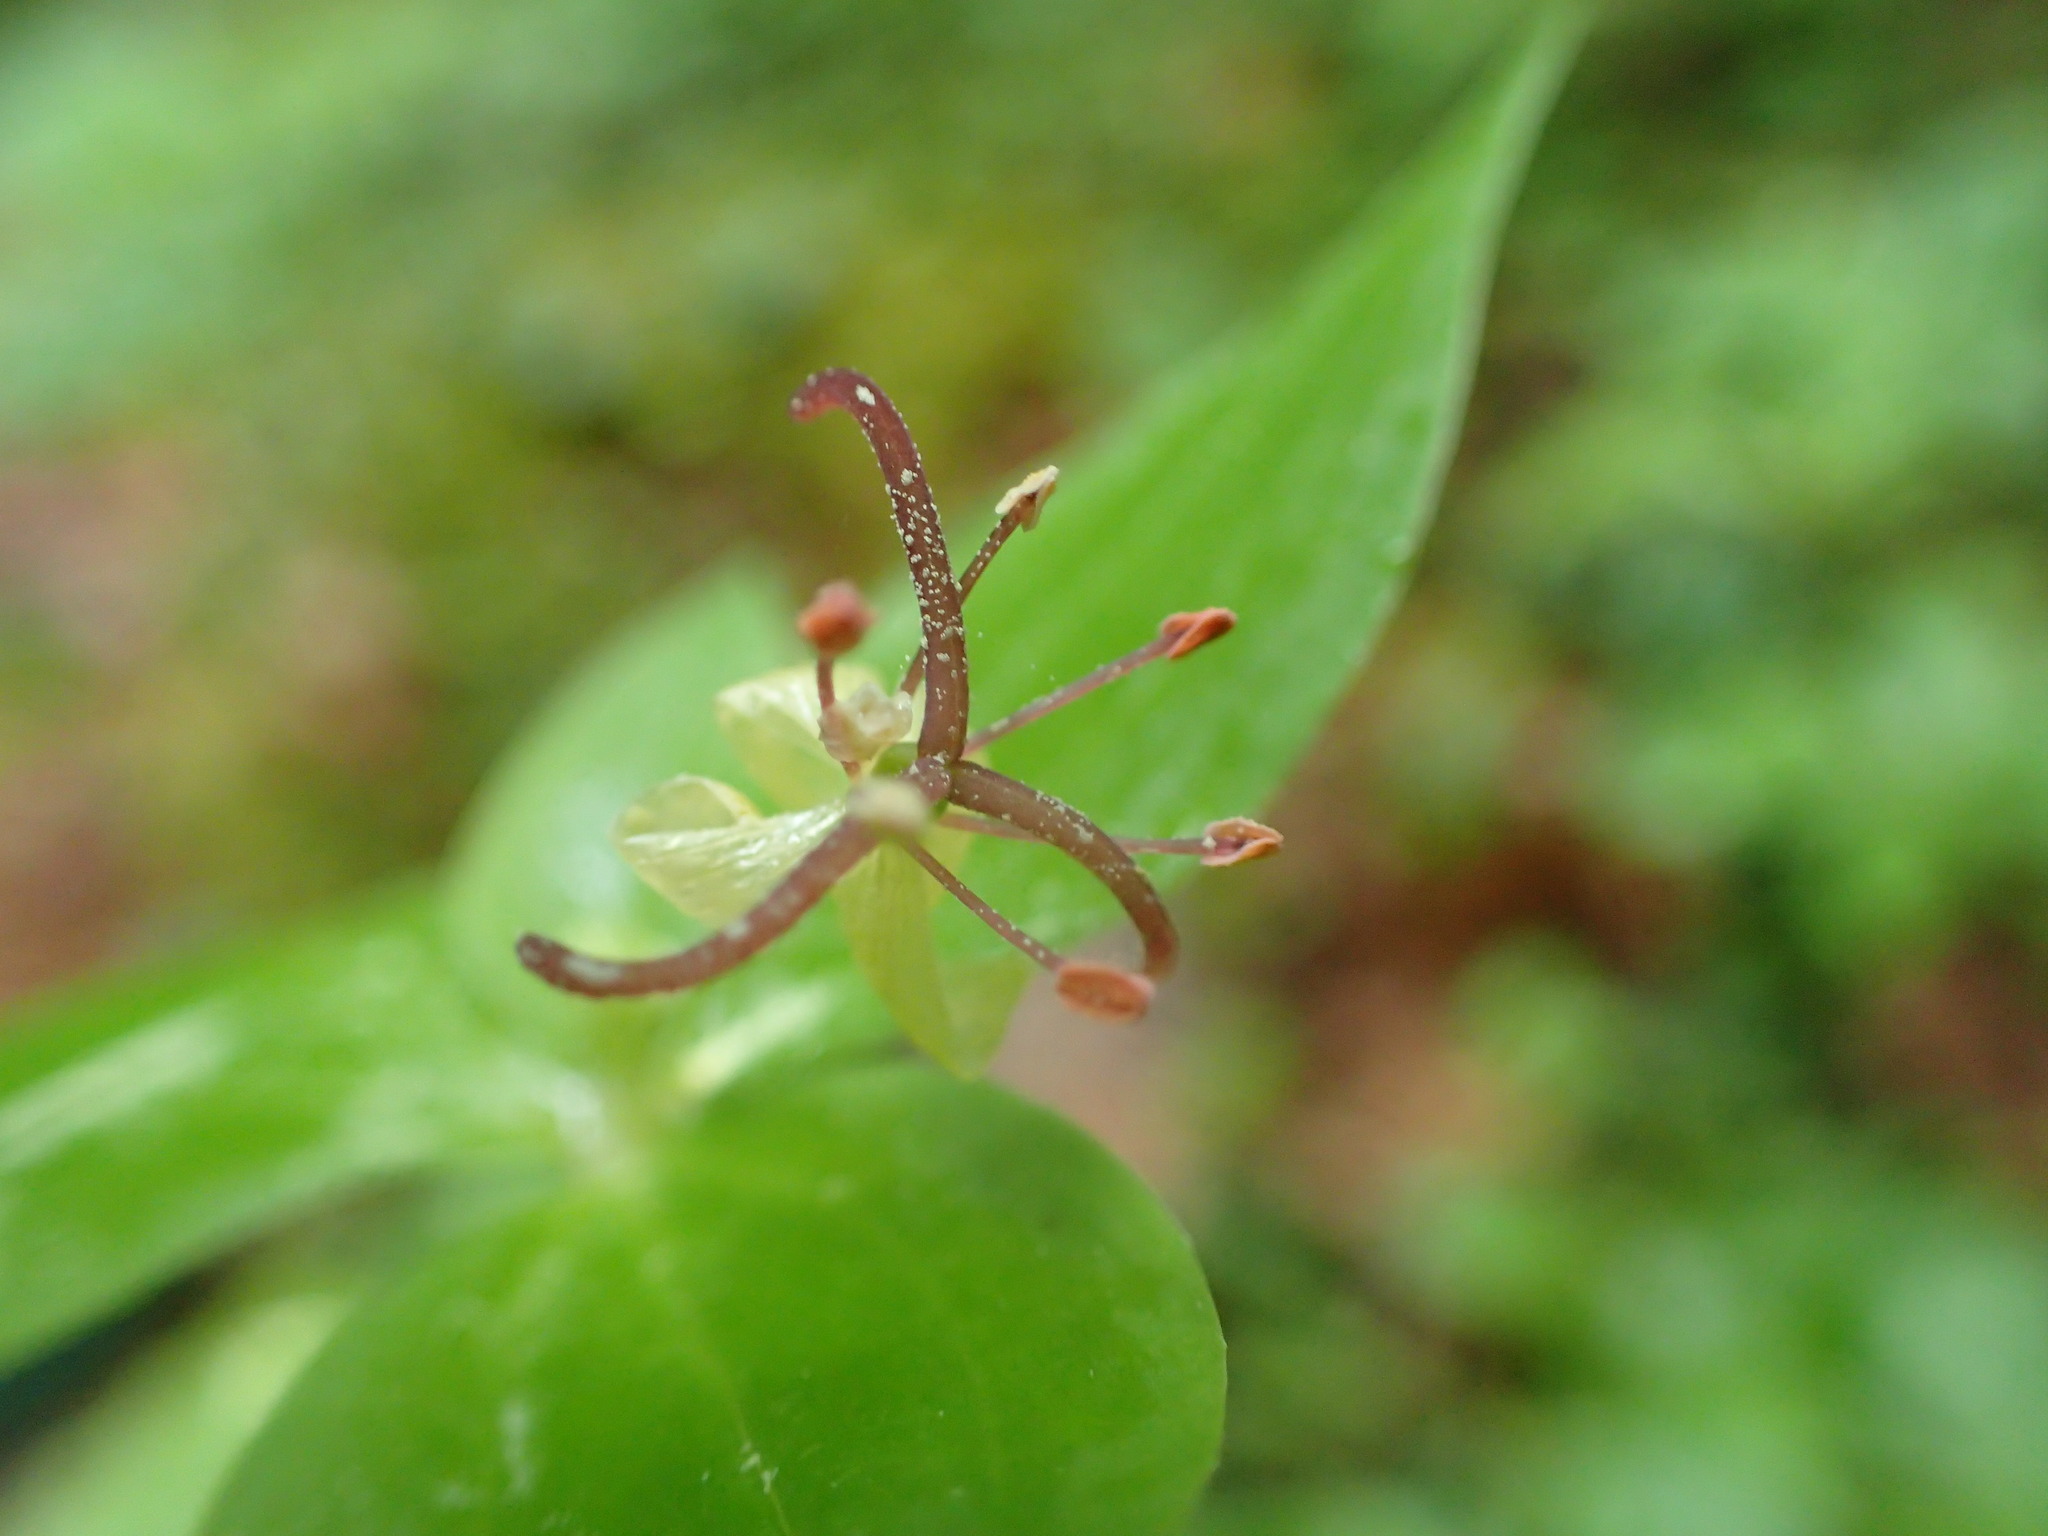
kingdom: Plantae
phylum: Tracheophyta
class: Liliopsida
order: Liliales
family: Liliaceae
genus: Medeola
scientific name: Medeola virginiana
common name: Indian cucumber-root
